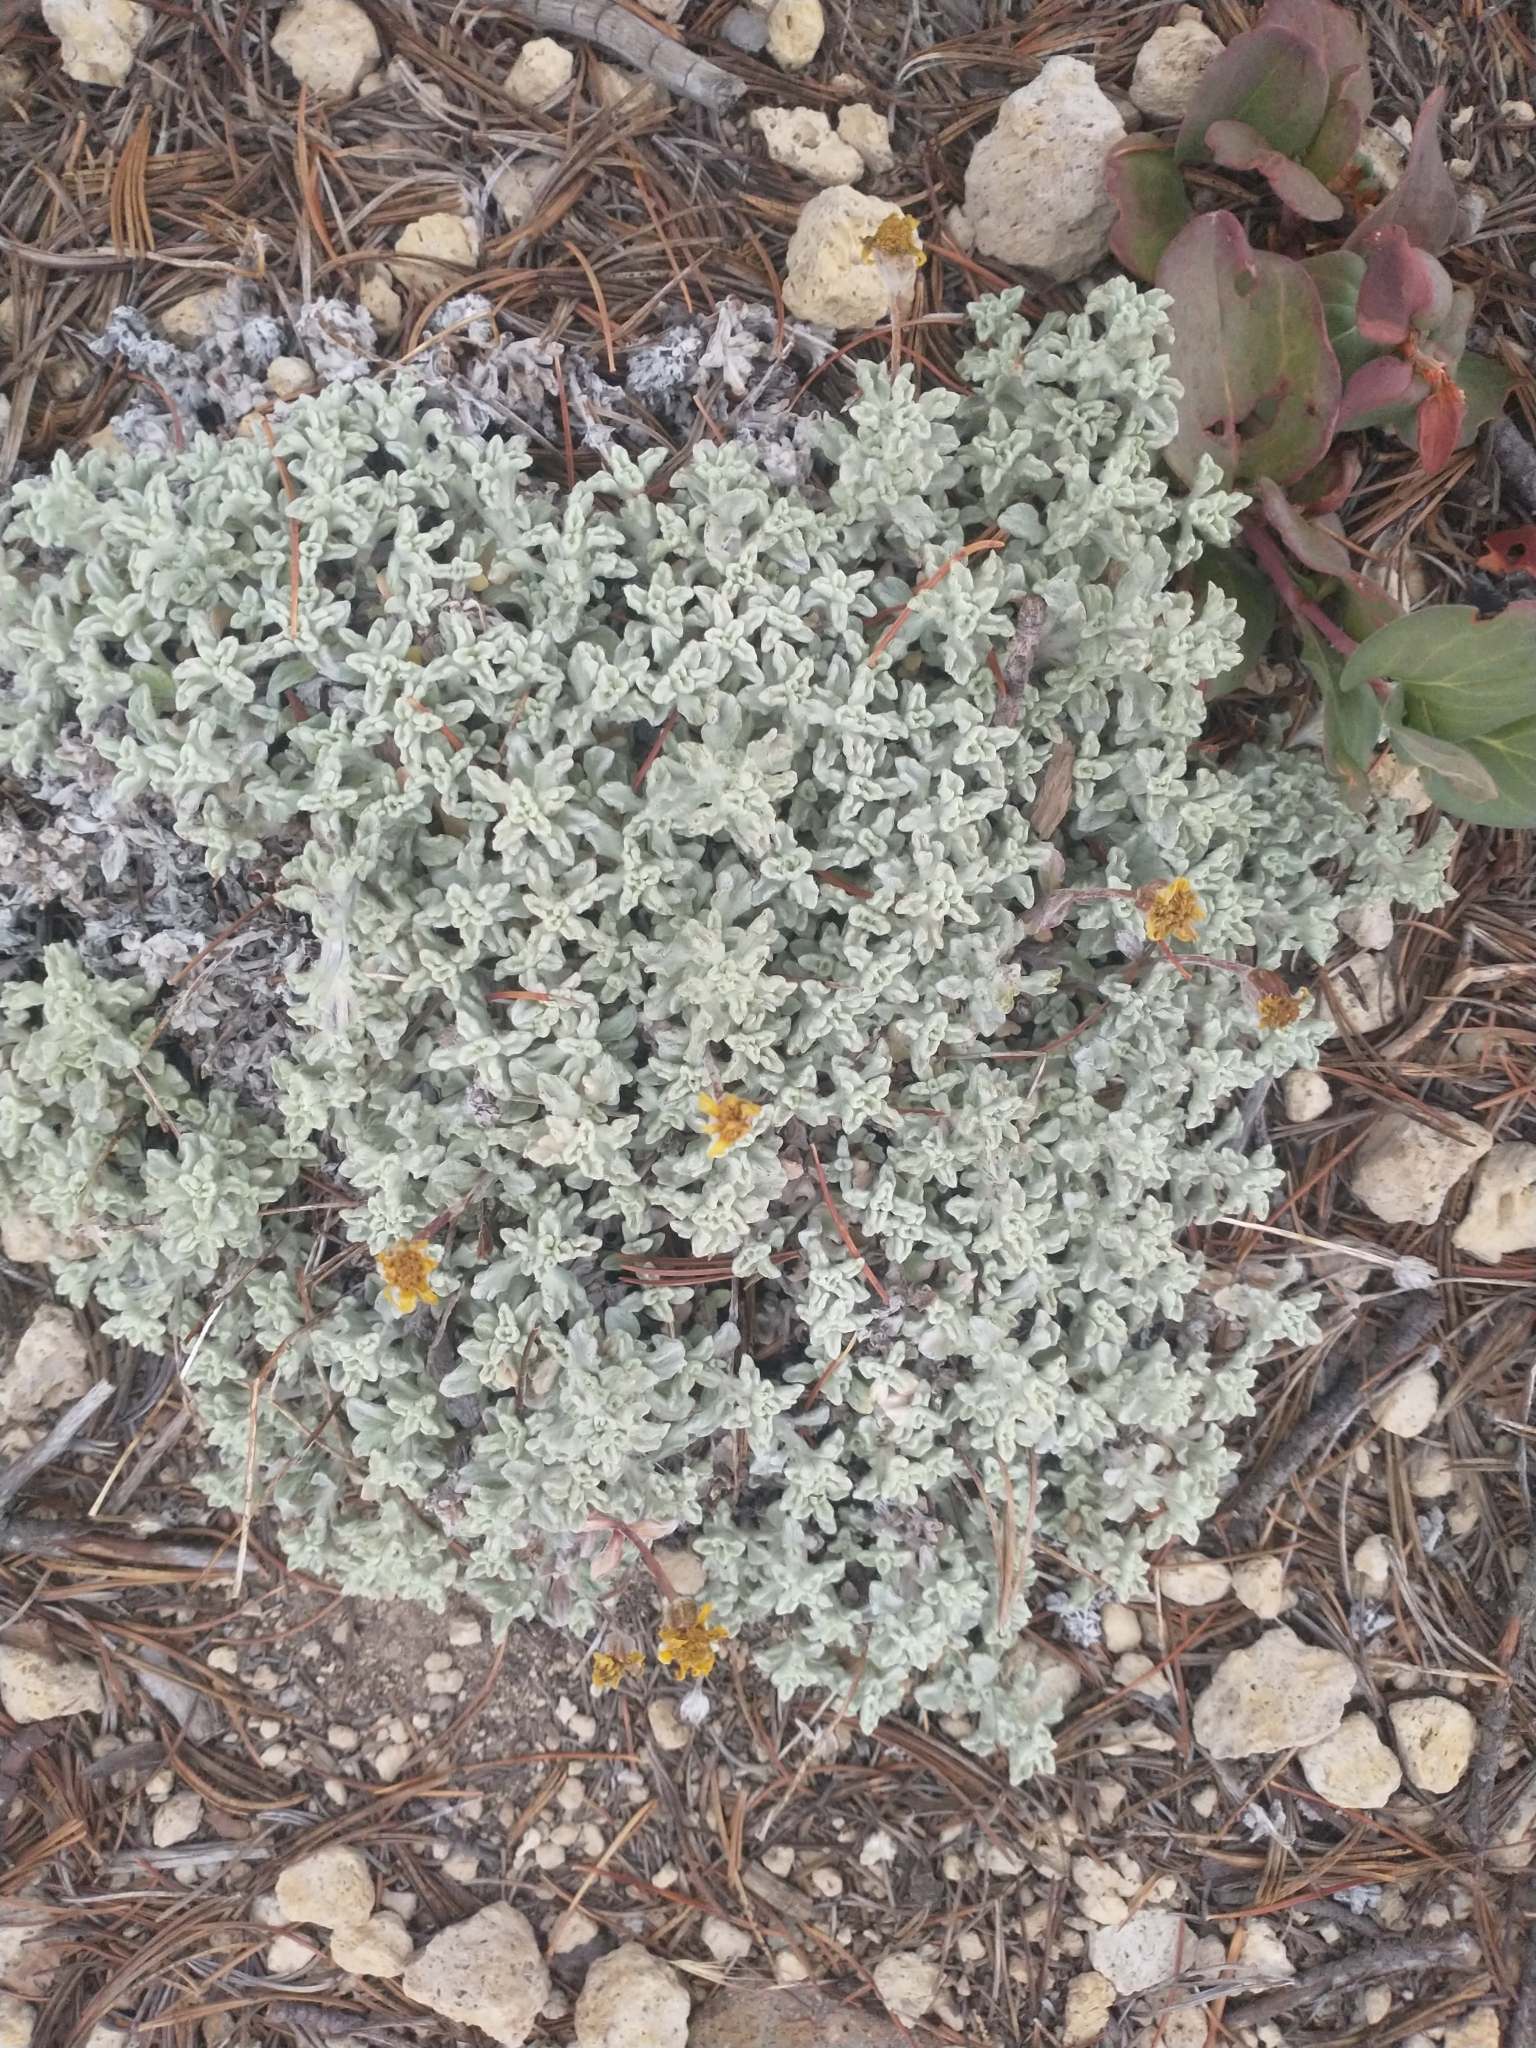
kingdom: Plantae
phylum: Tracheophyta
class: Magnoliopsida
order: Asterales
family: Asteraceae
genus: Eriophyllum
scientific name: Eriophyllum lanatum
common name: Common woolly-sunflower
